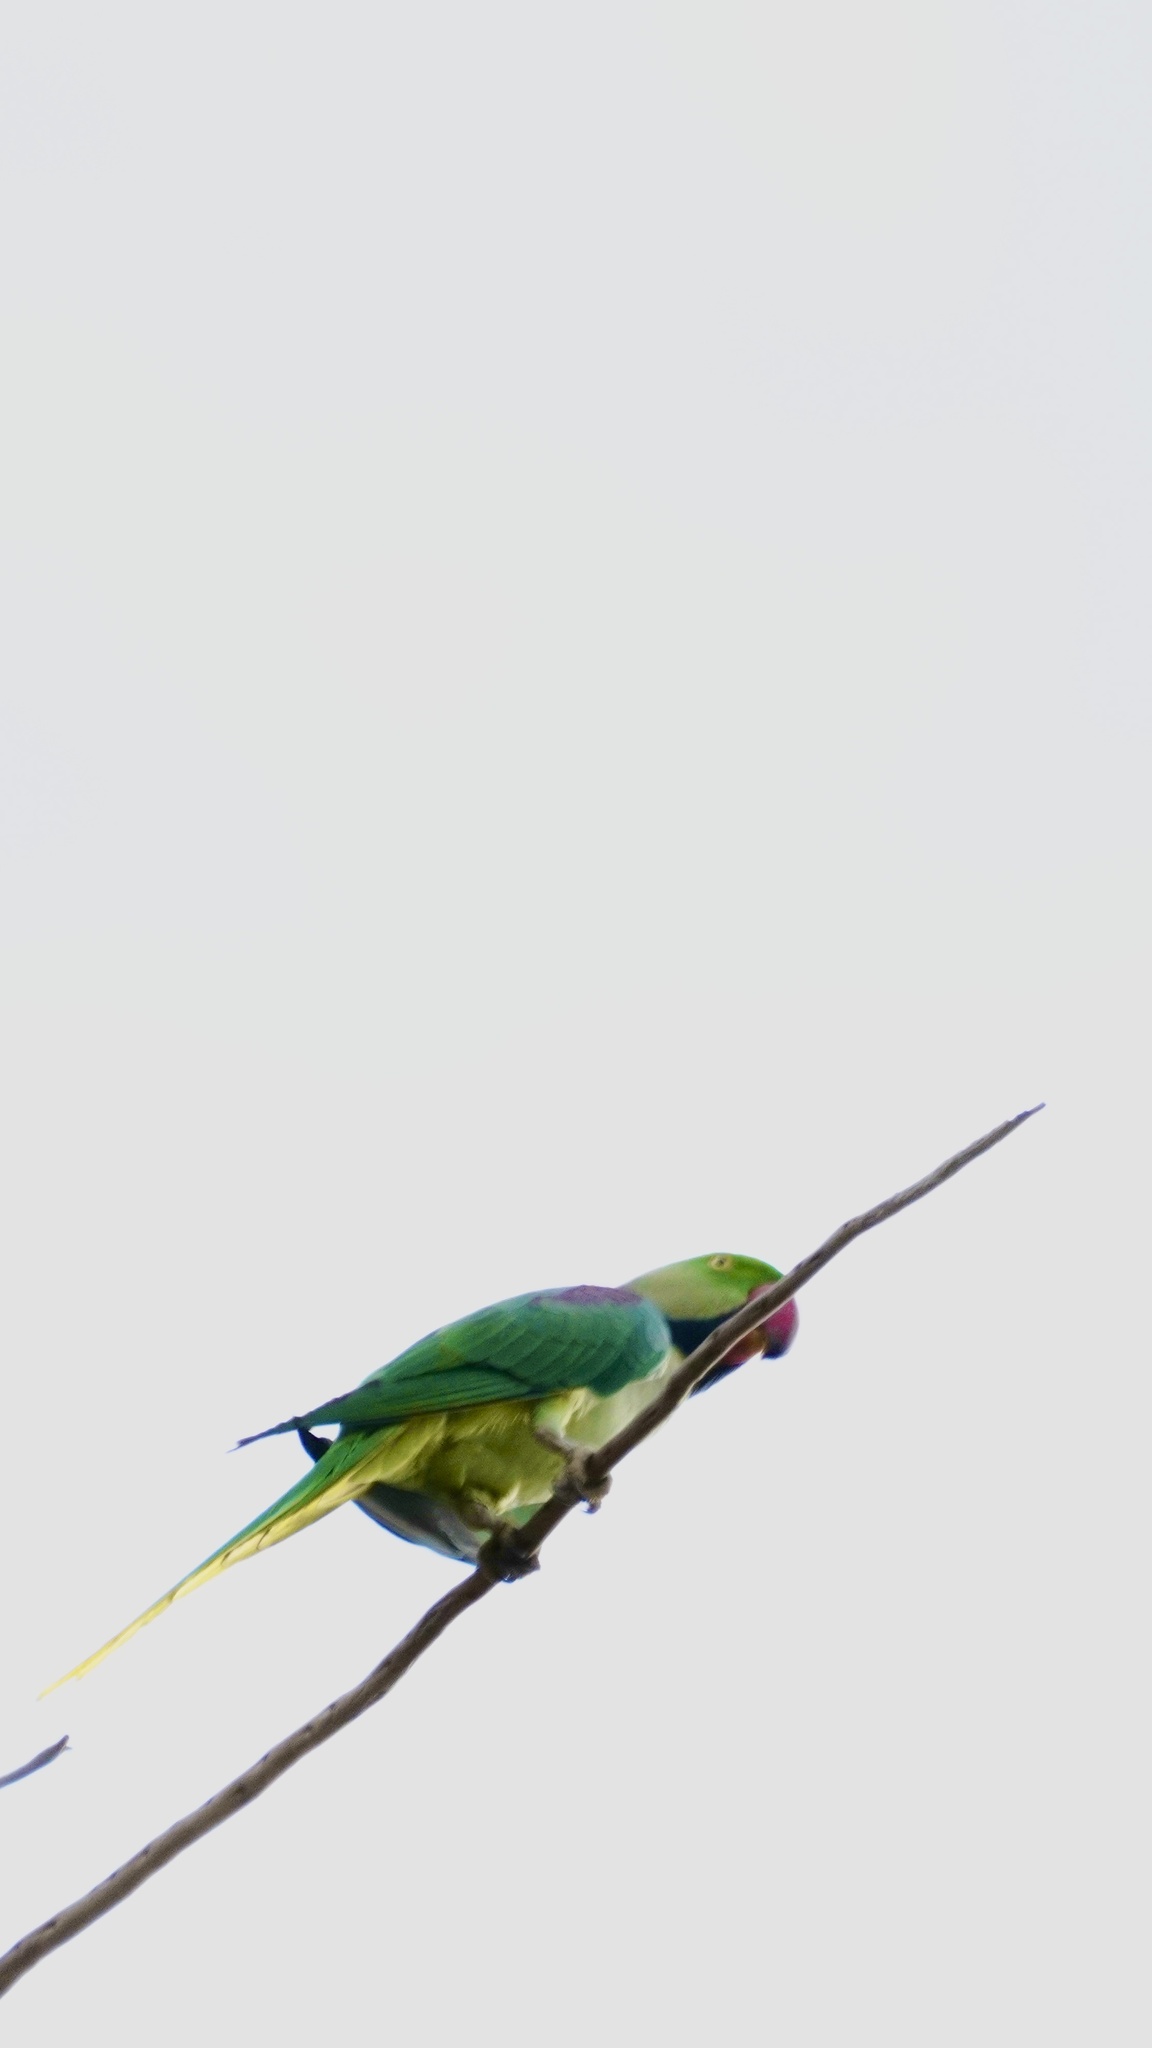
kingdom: Animalia
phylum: Chordata
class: Aves
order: Psittaciformes
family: Psittacidae
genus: Psittacula
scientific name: Psittacula eupatria
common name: Alexandrine parakeet
